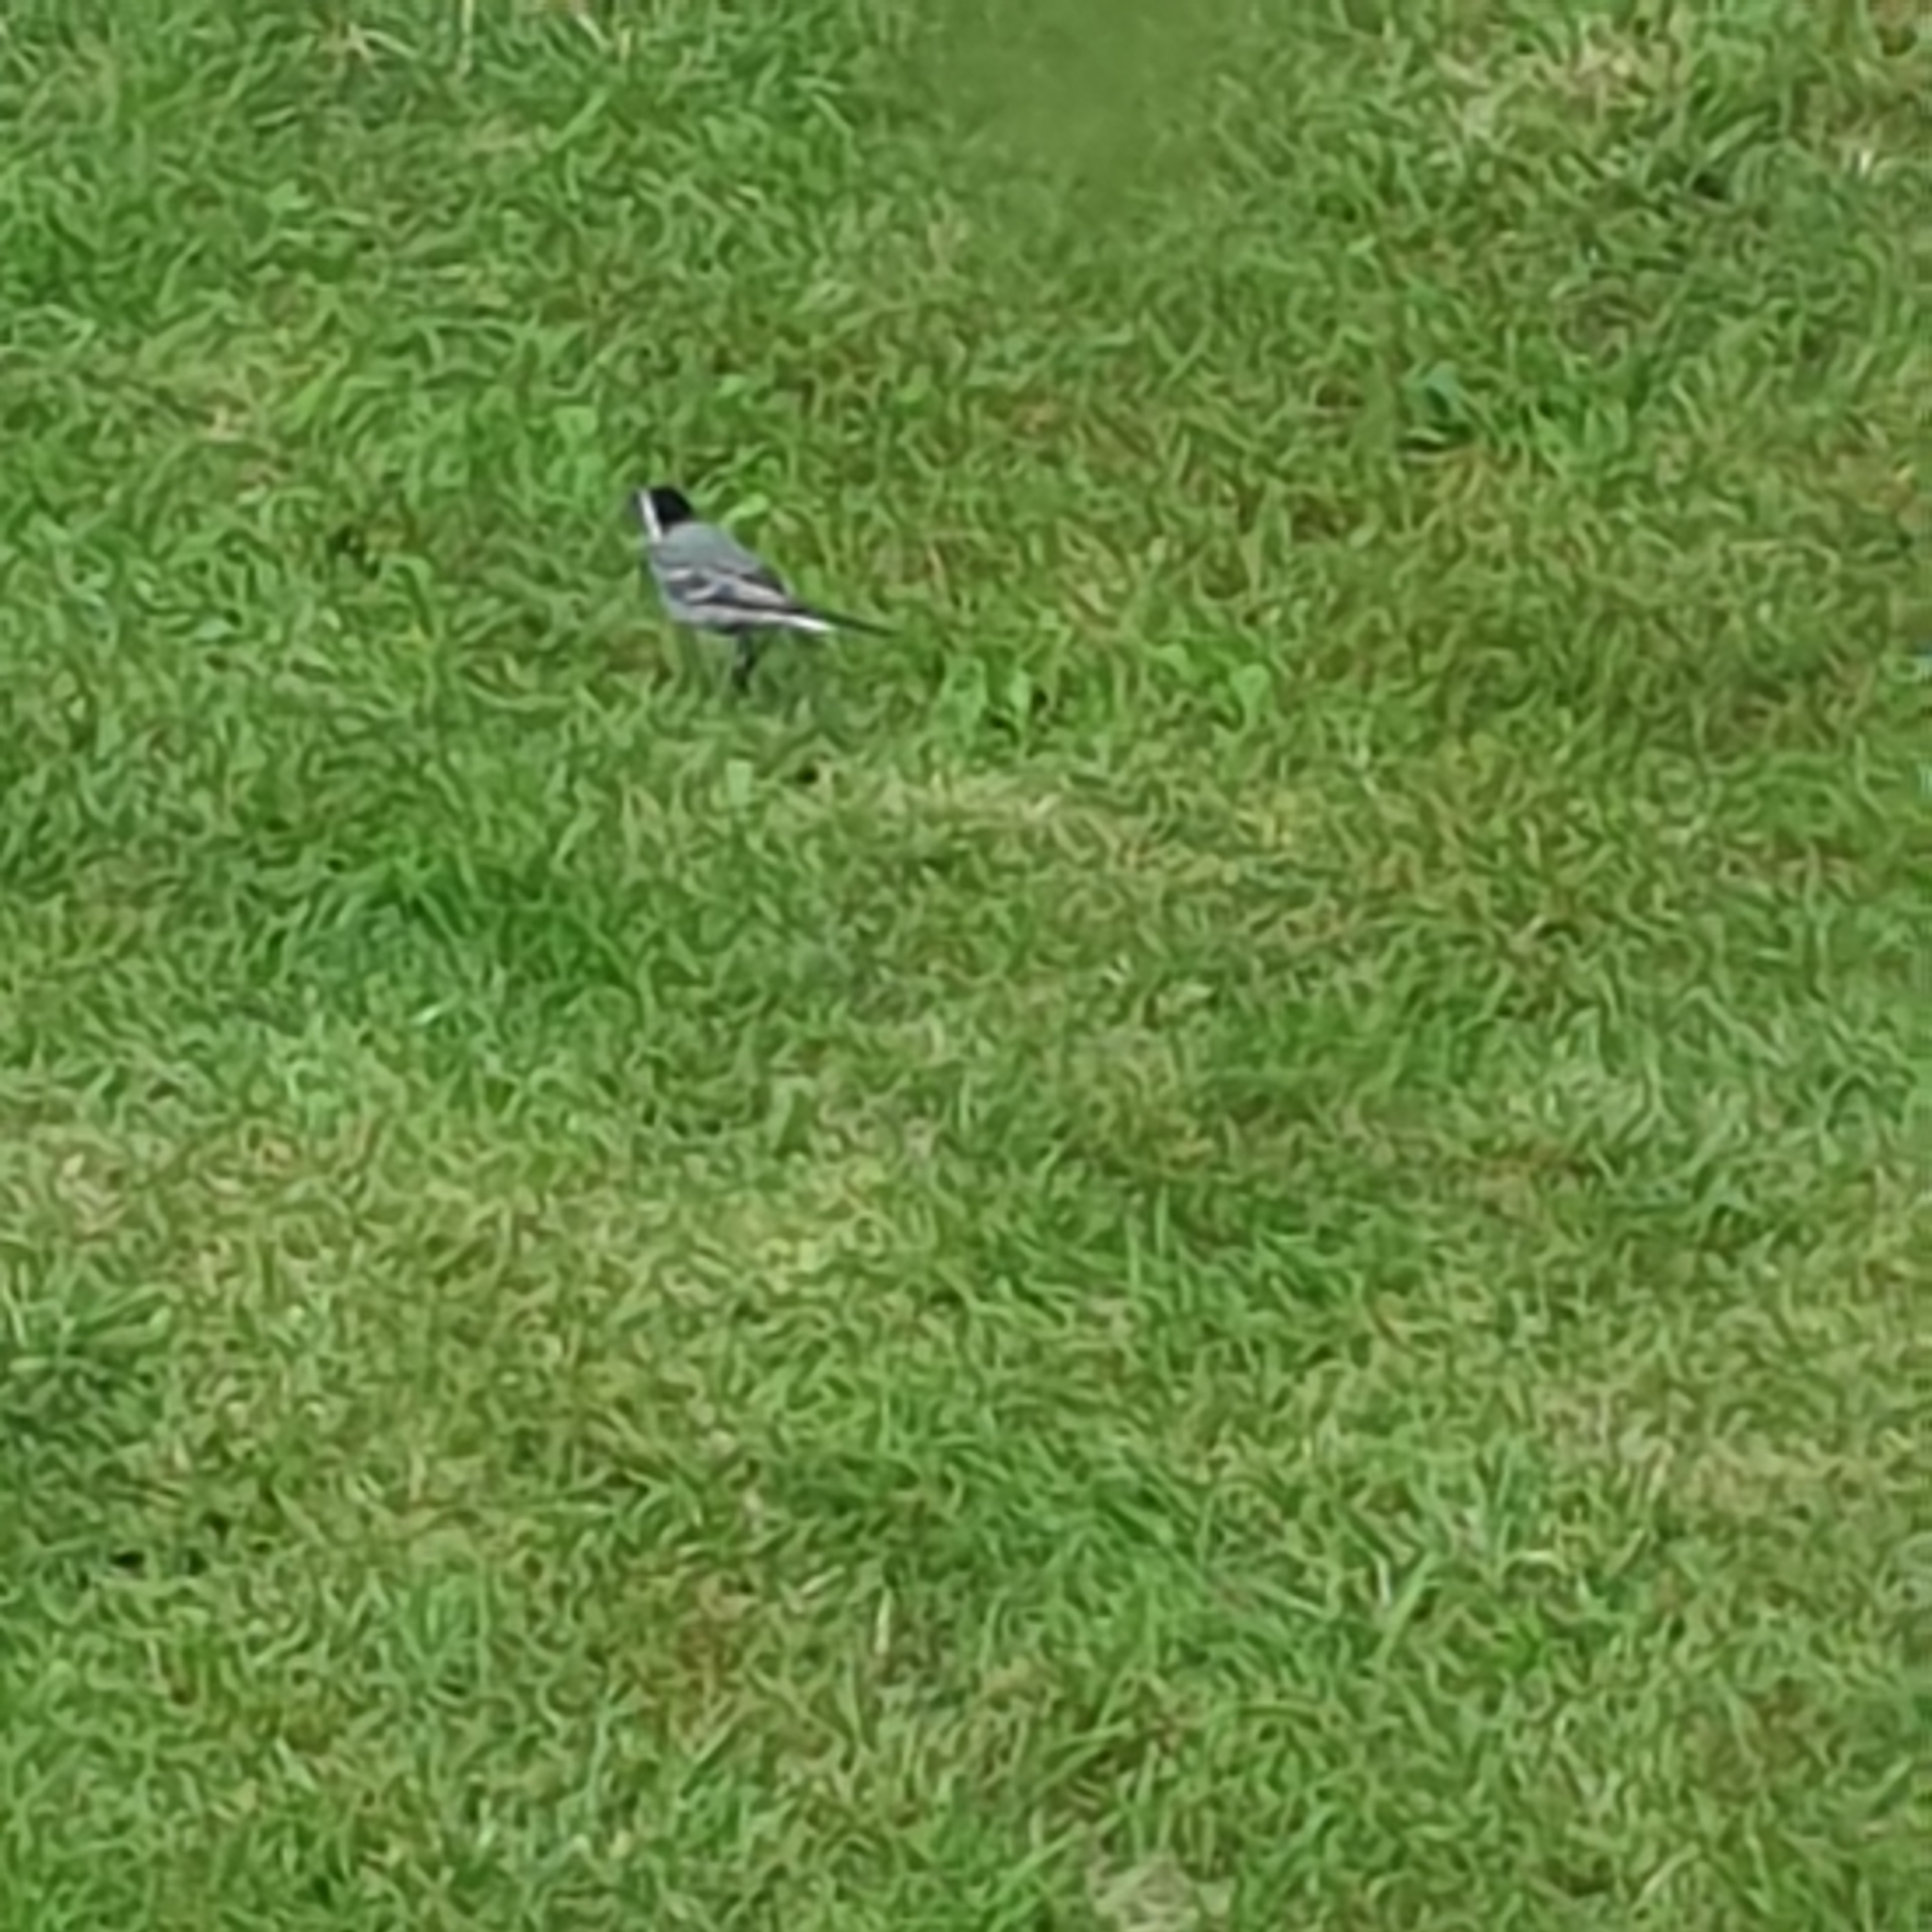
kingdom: Animalia
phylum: Chordata
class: Aves
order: Passeriformes
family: Motacillidae
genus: Motacilla
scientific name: Motacilla alba
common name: White wagtail
